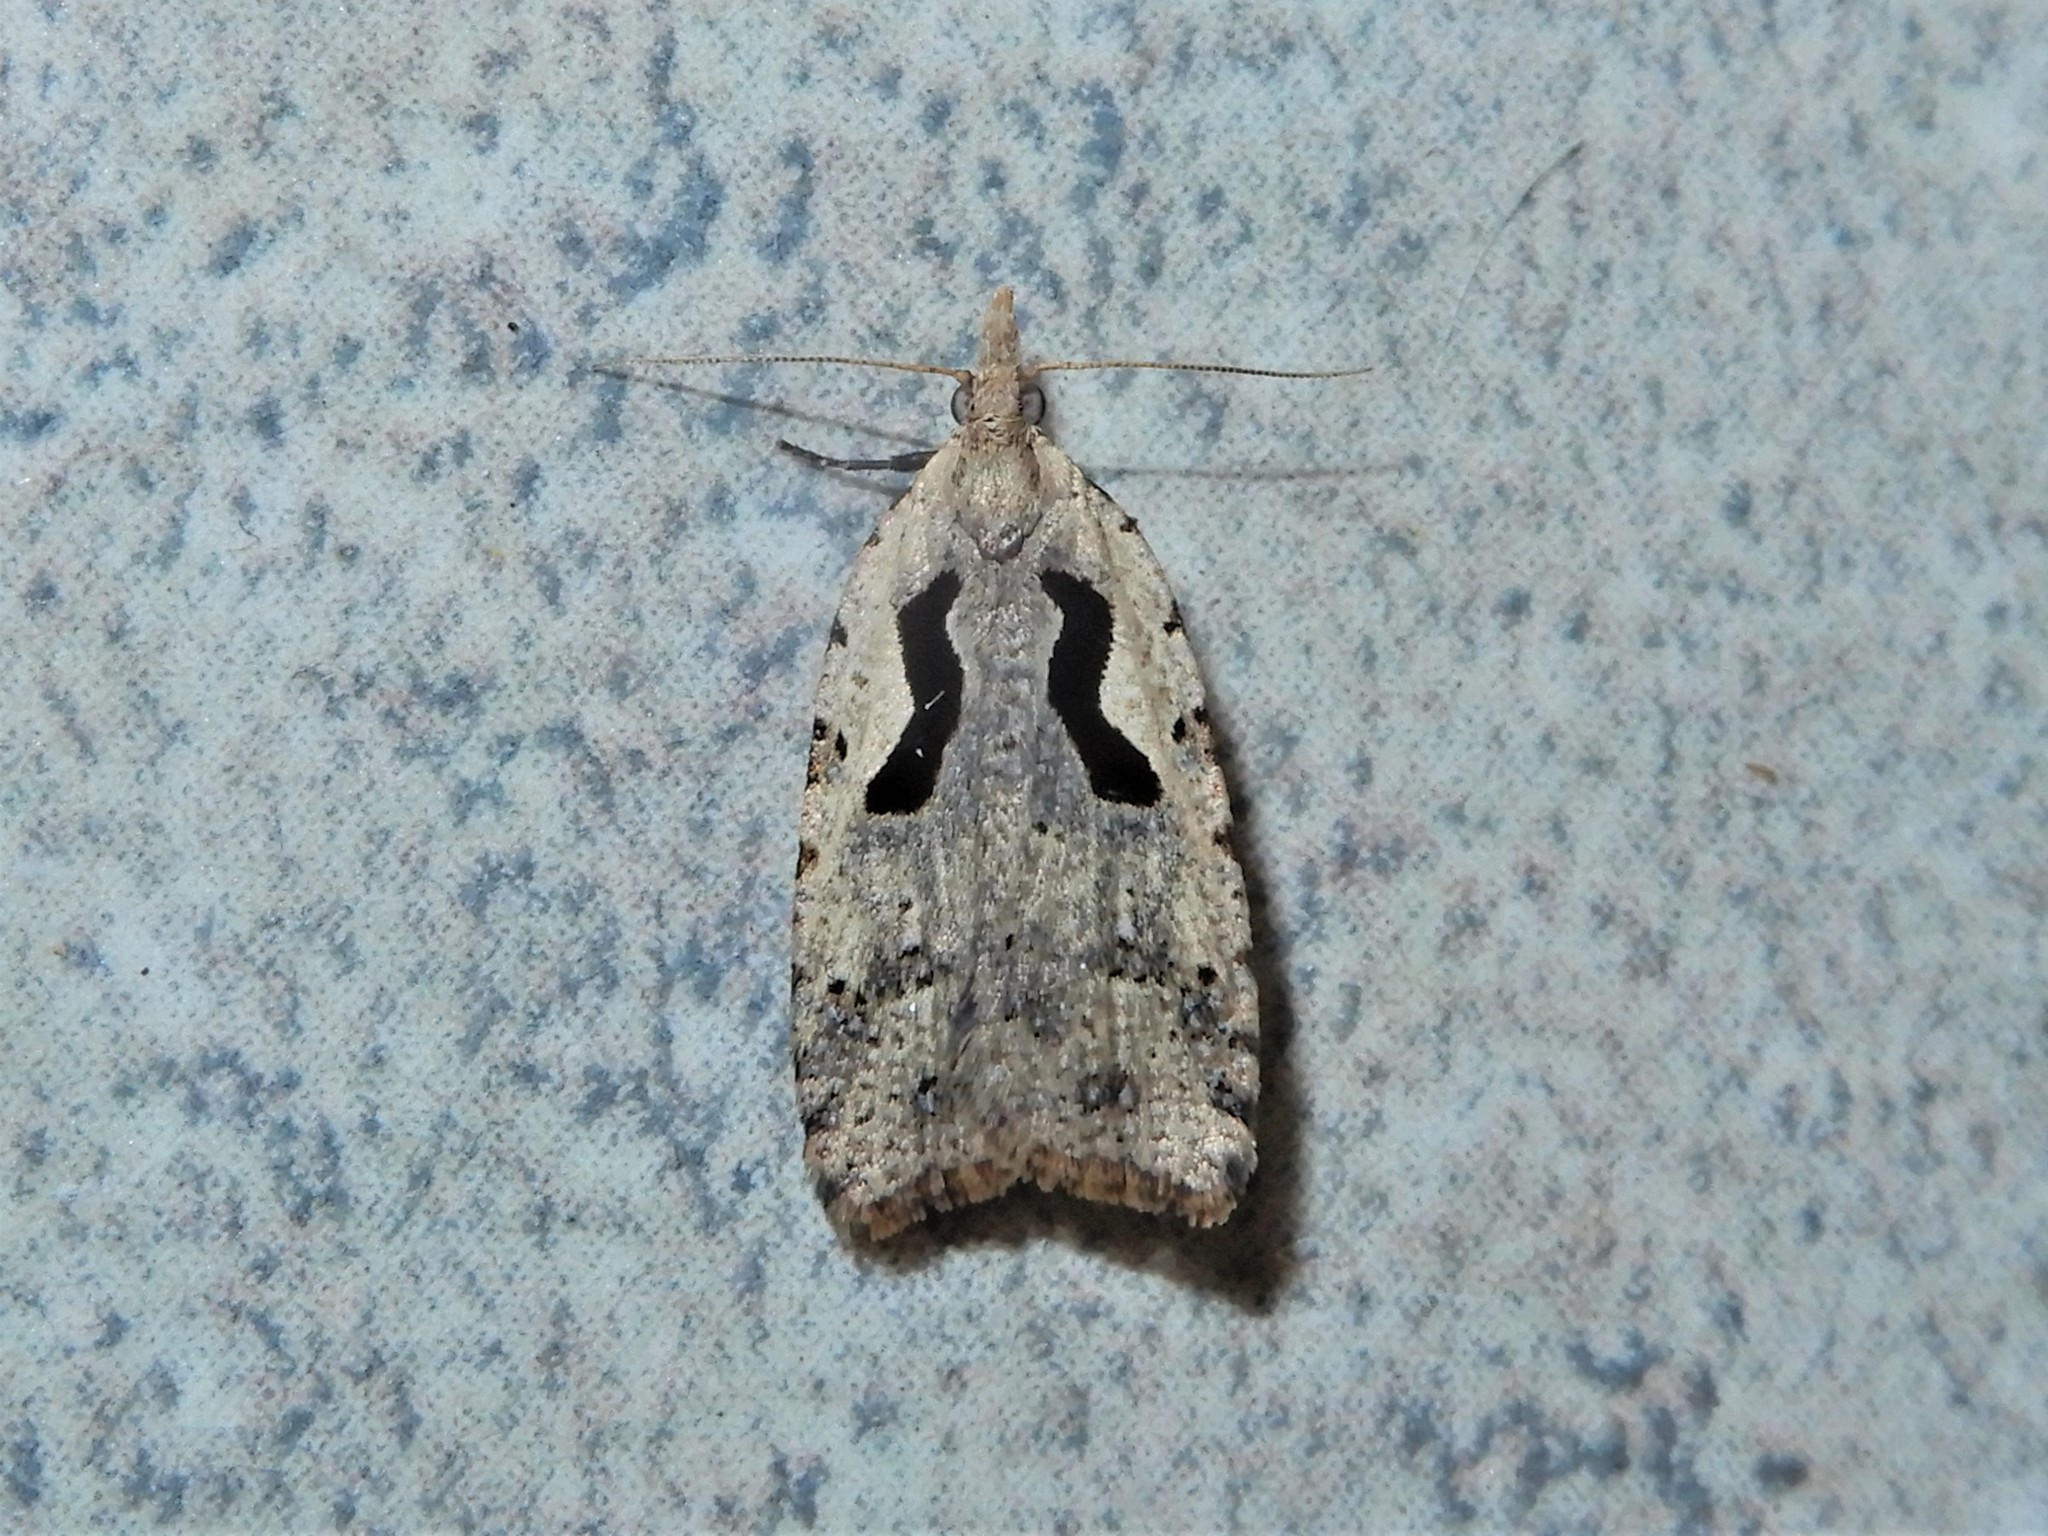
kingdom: Animalia
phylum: Arthropoda
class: Insecta
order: Lepidoptera
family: Tortricidae
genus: Cnephasia
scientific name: Cnephasia jactatana
